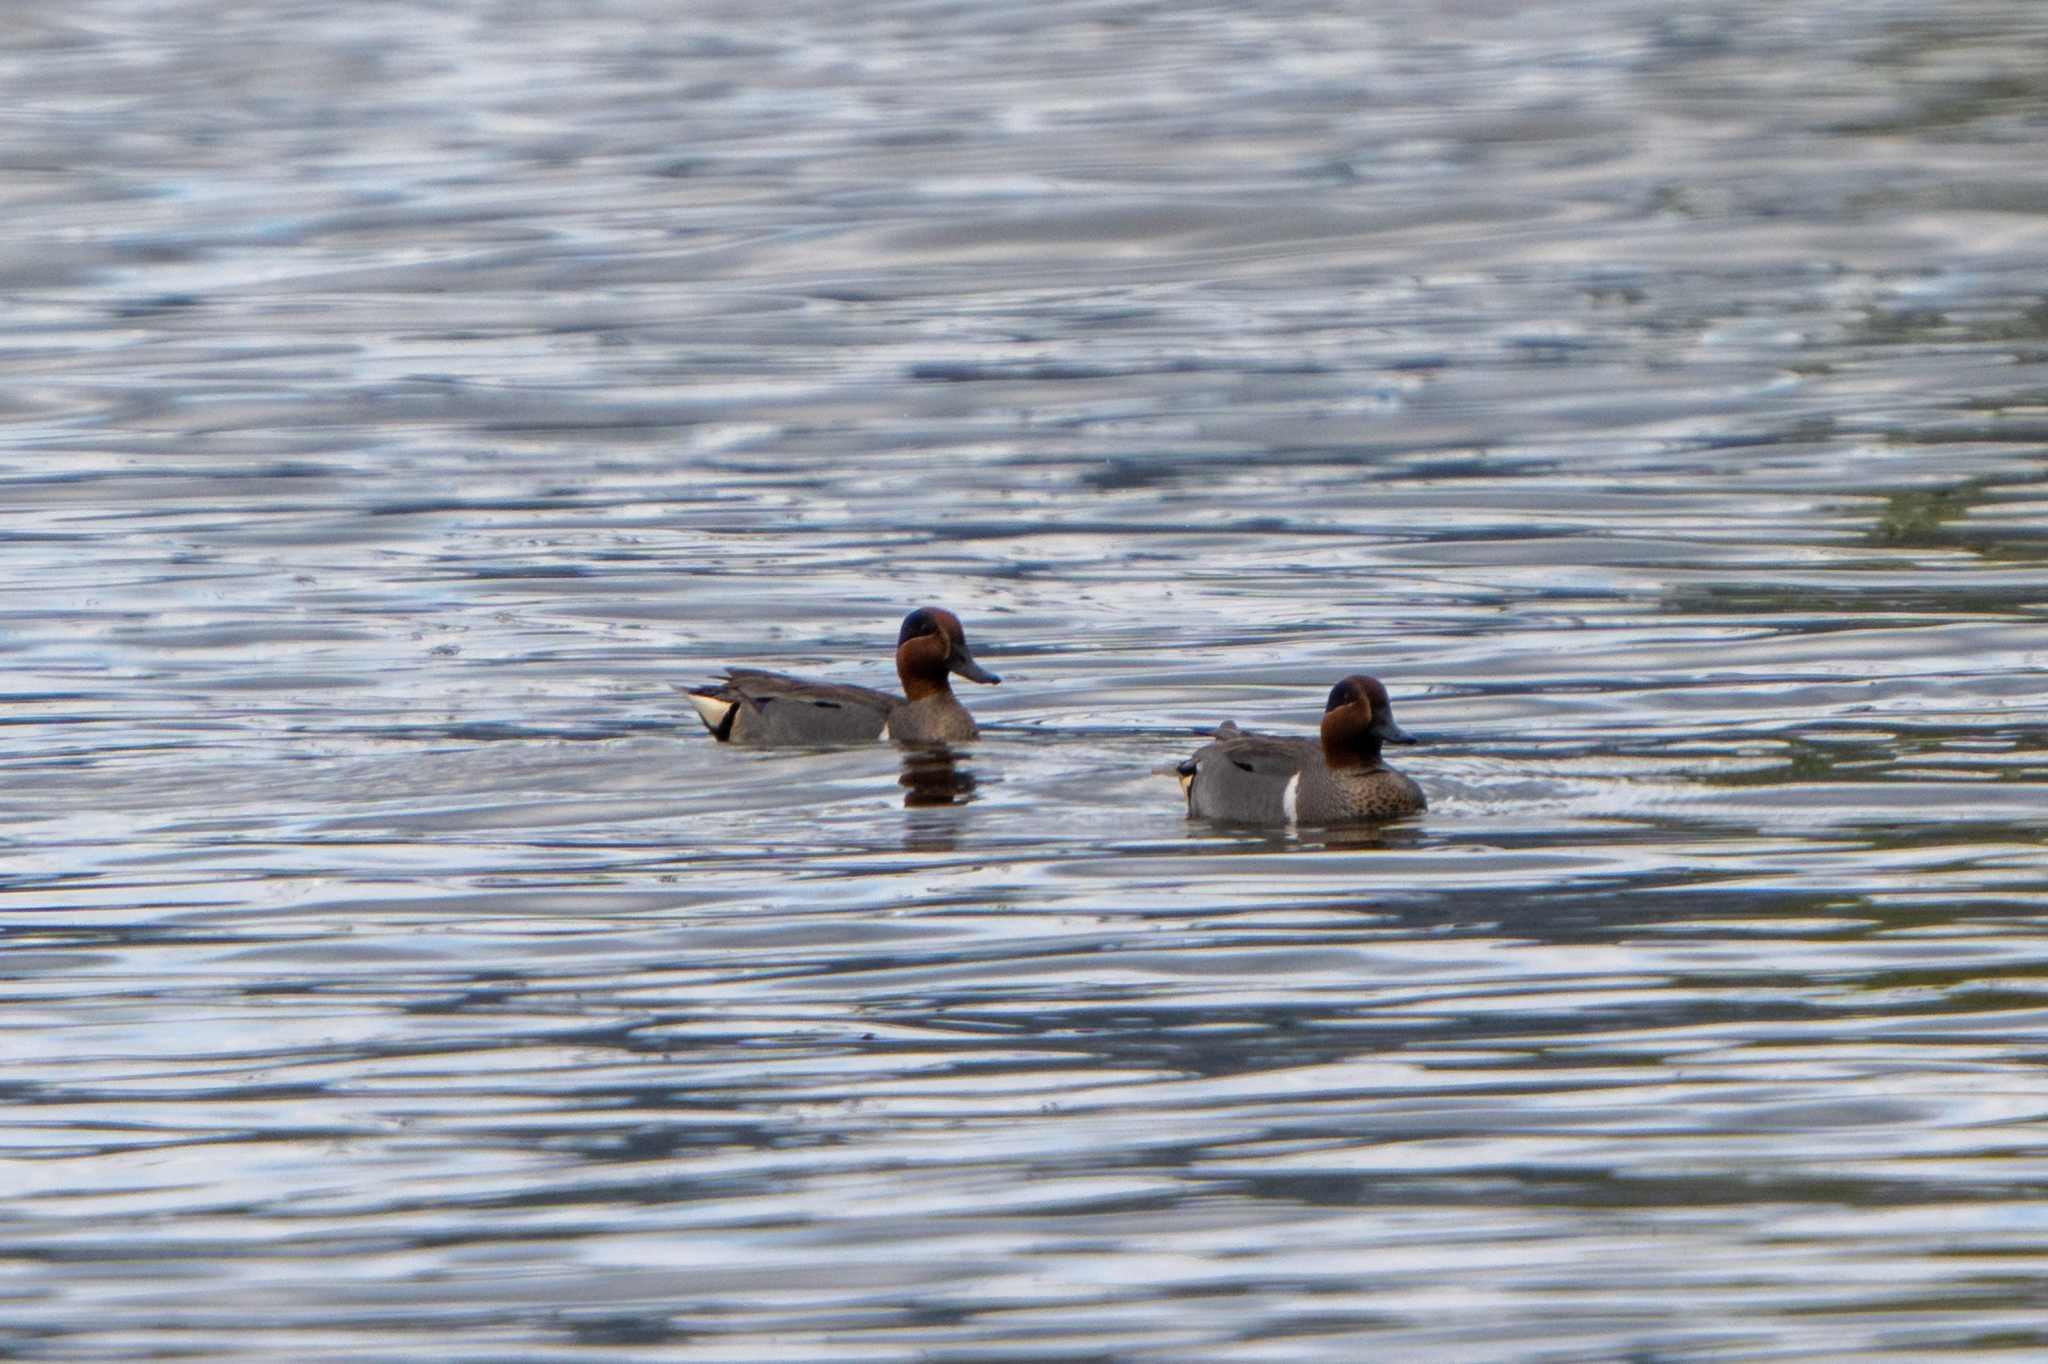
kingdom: Animalia
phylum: Chordata
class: Aves
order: Anseriformes
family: Anatidae
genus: Anas
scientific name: Anas carolinensis
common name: Green-winged teal
